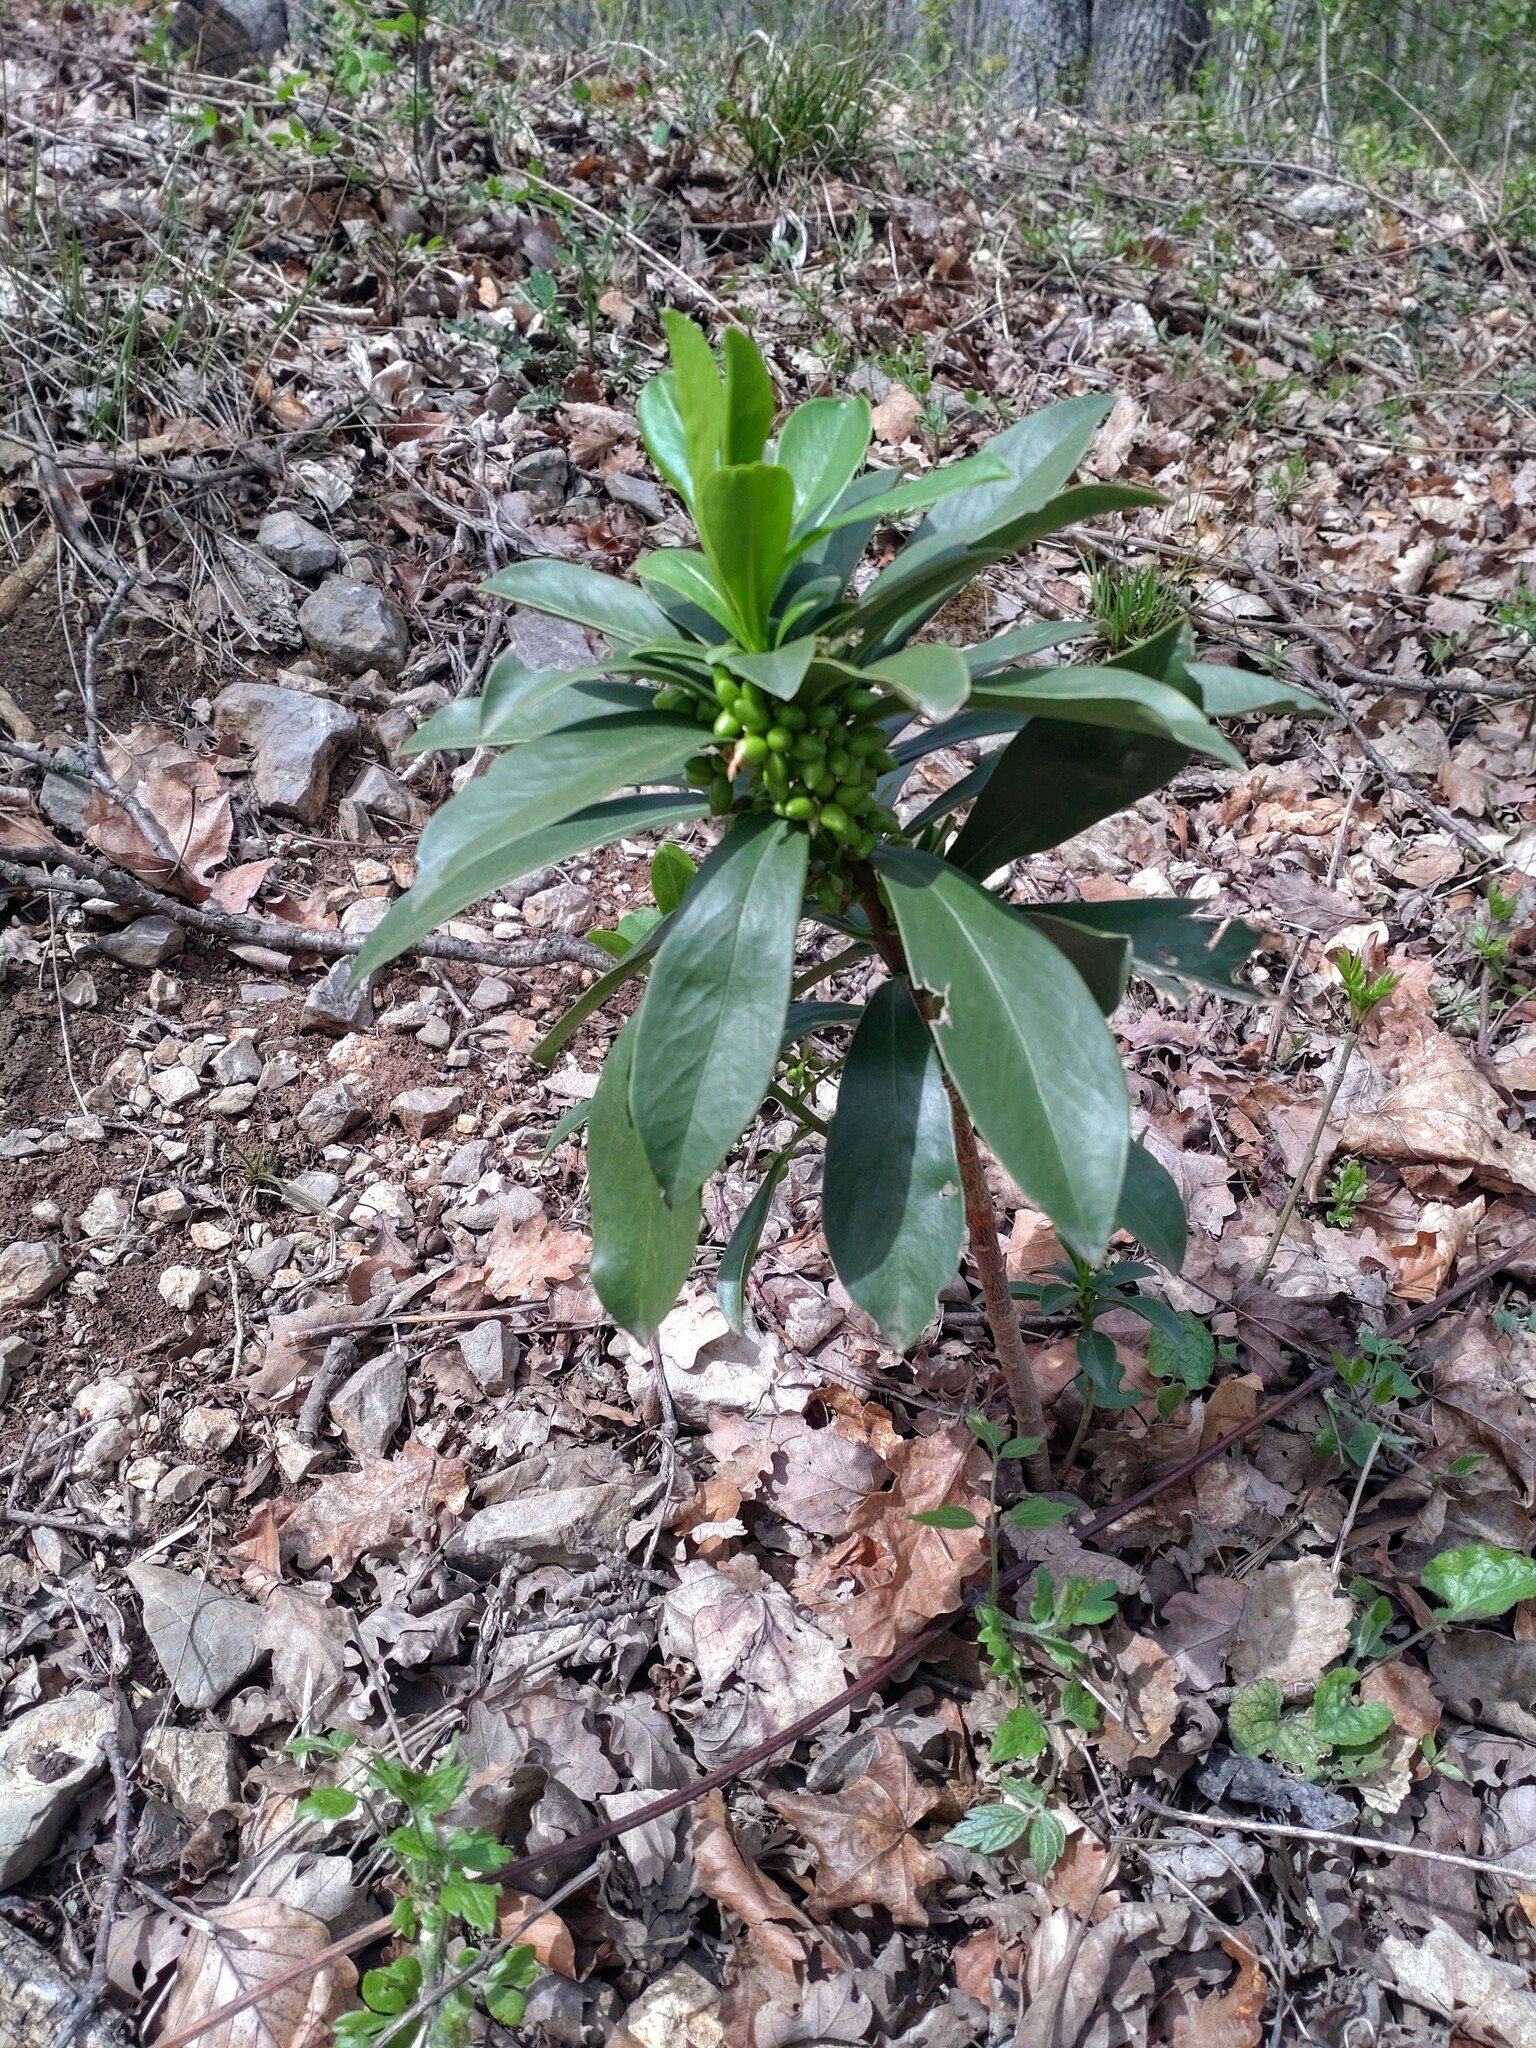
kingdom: Plantae
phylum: Tracheophyta
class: Magnoliopsida
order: Malvales
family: Thymelaeaceae
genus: Daphne
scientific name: Daphne laureola
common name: Spurge-laurel
